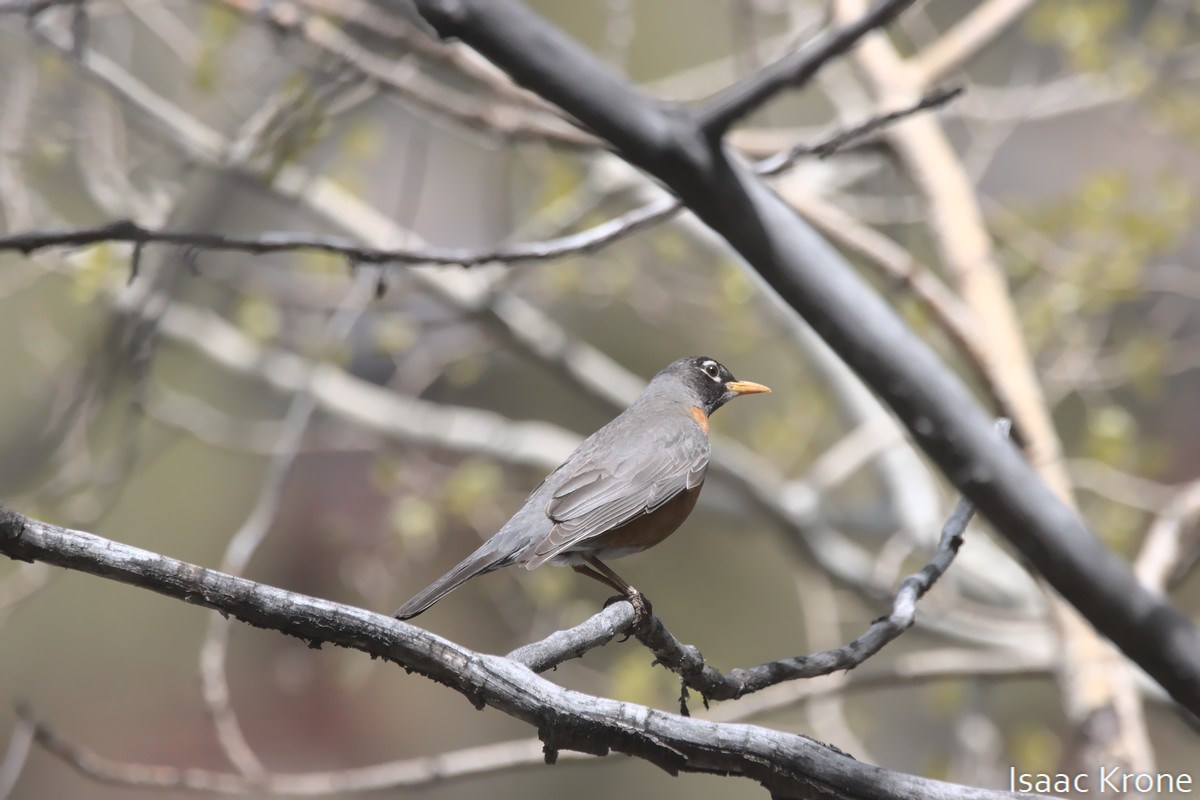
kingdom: Animalia
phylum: Chordata
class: Aves
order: Passeriformes
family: Turdidae
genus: Turdus
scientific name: Turdus migratorius
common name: American robin
